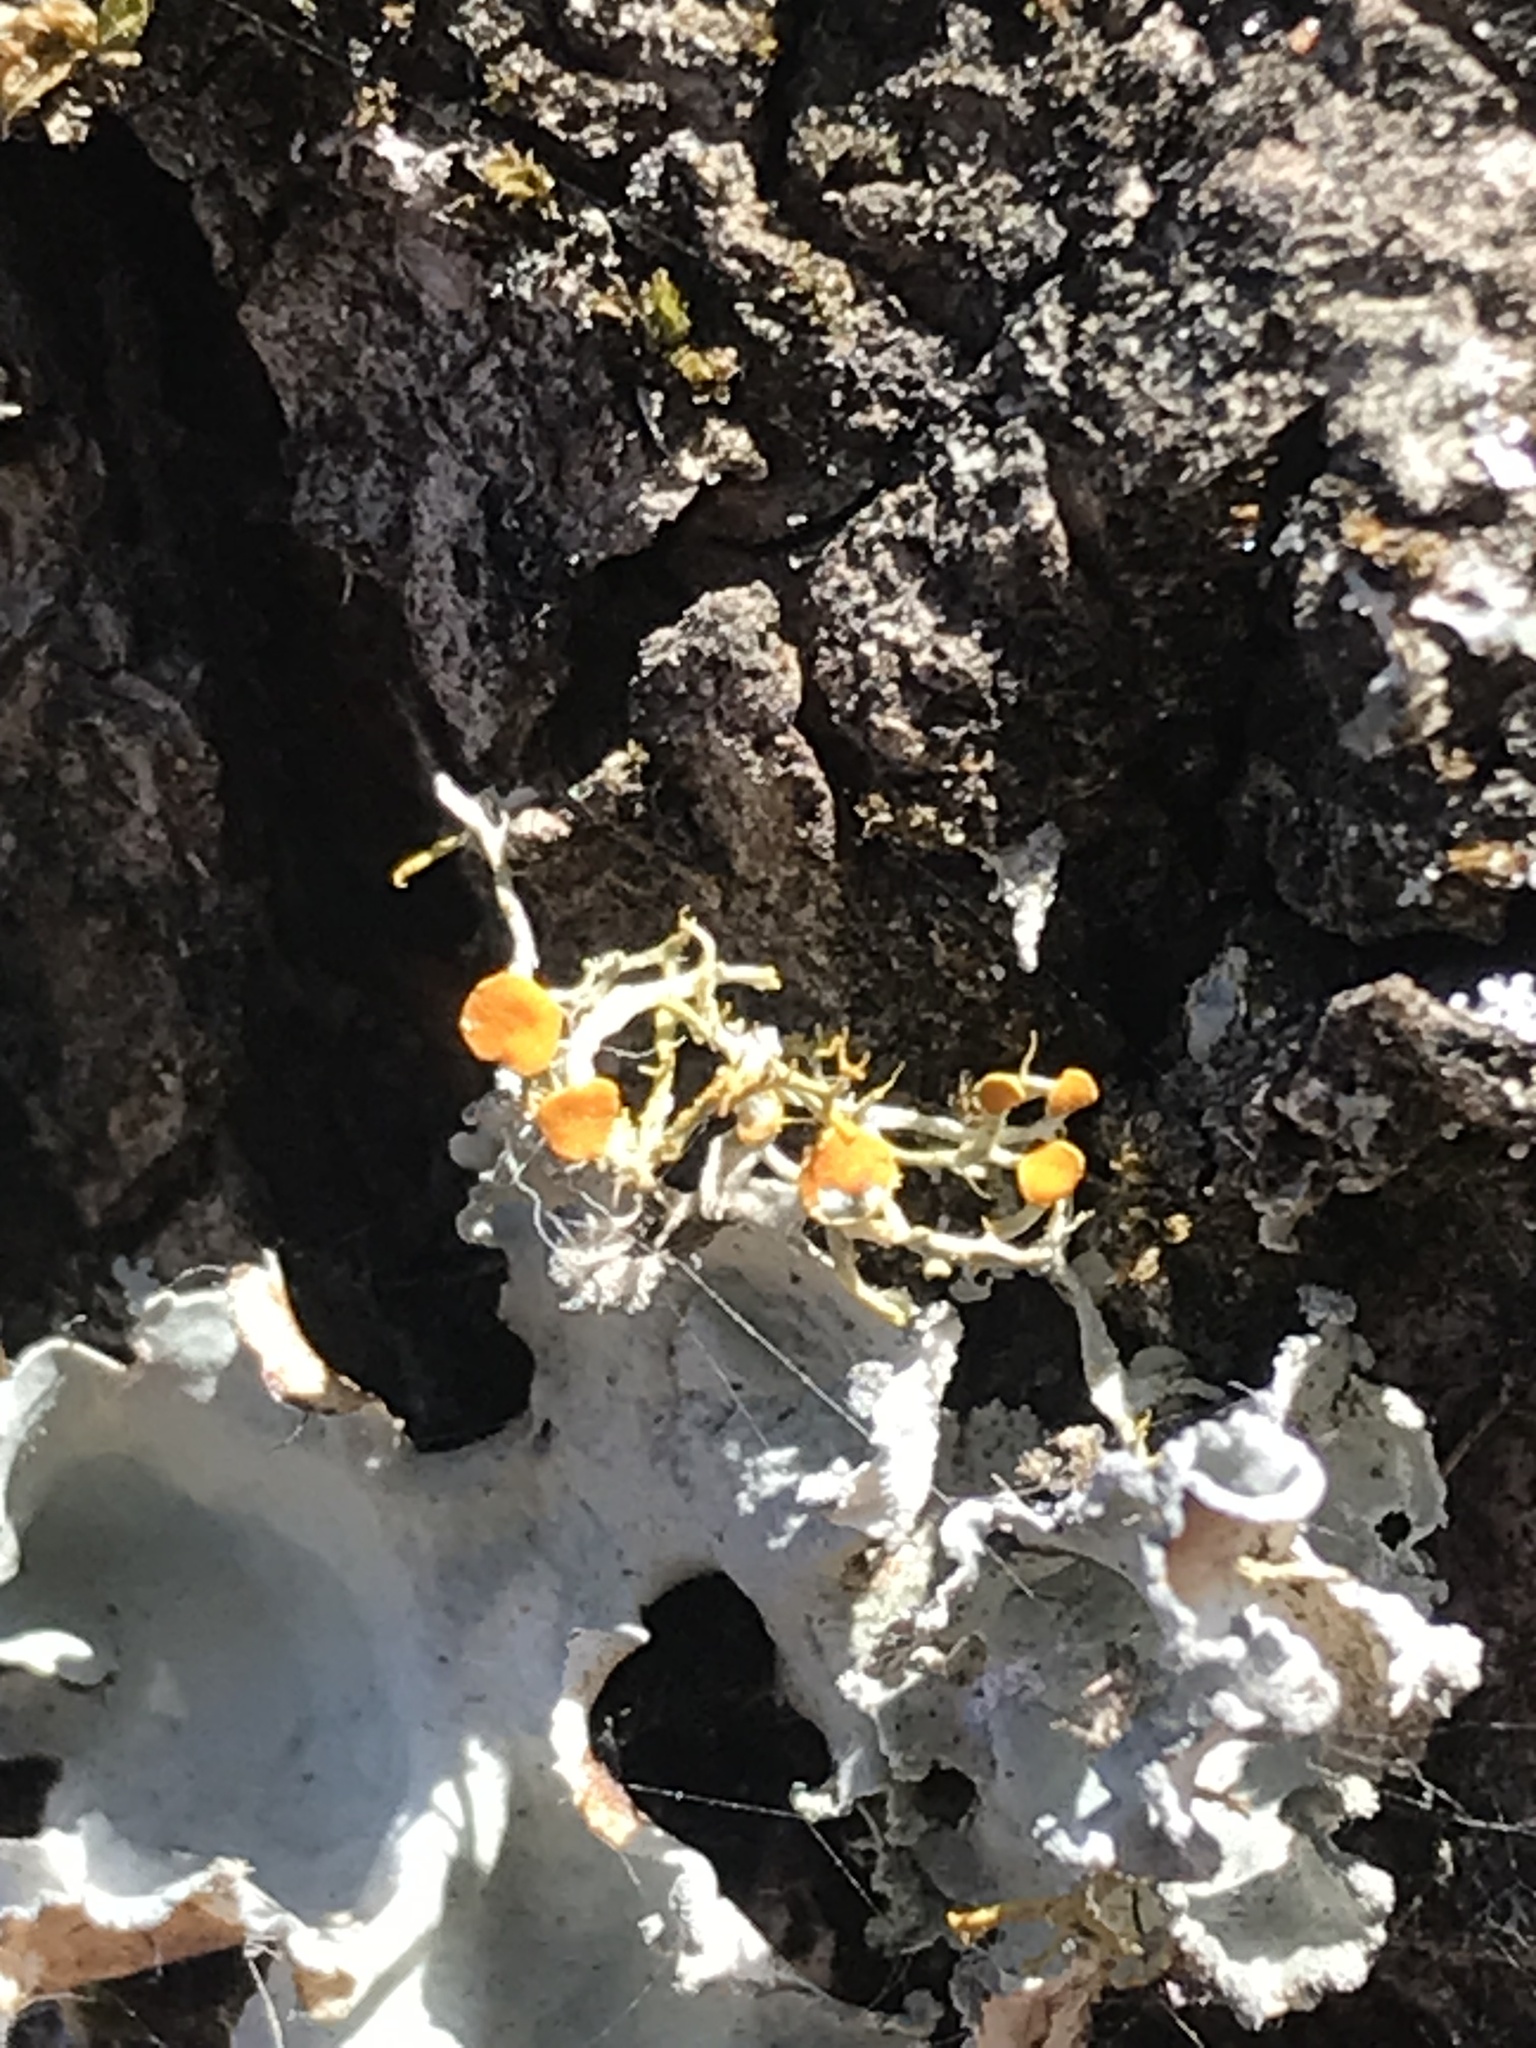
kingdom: Fungi
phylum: Ascomycota
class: Lecanoromycetes
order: Teloschistales
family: Teloschistaceae
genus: Niorma
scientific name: Niorma chrysophthalma
